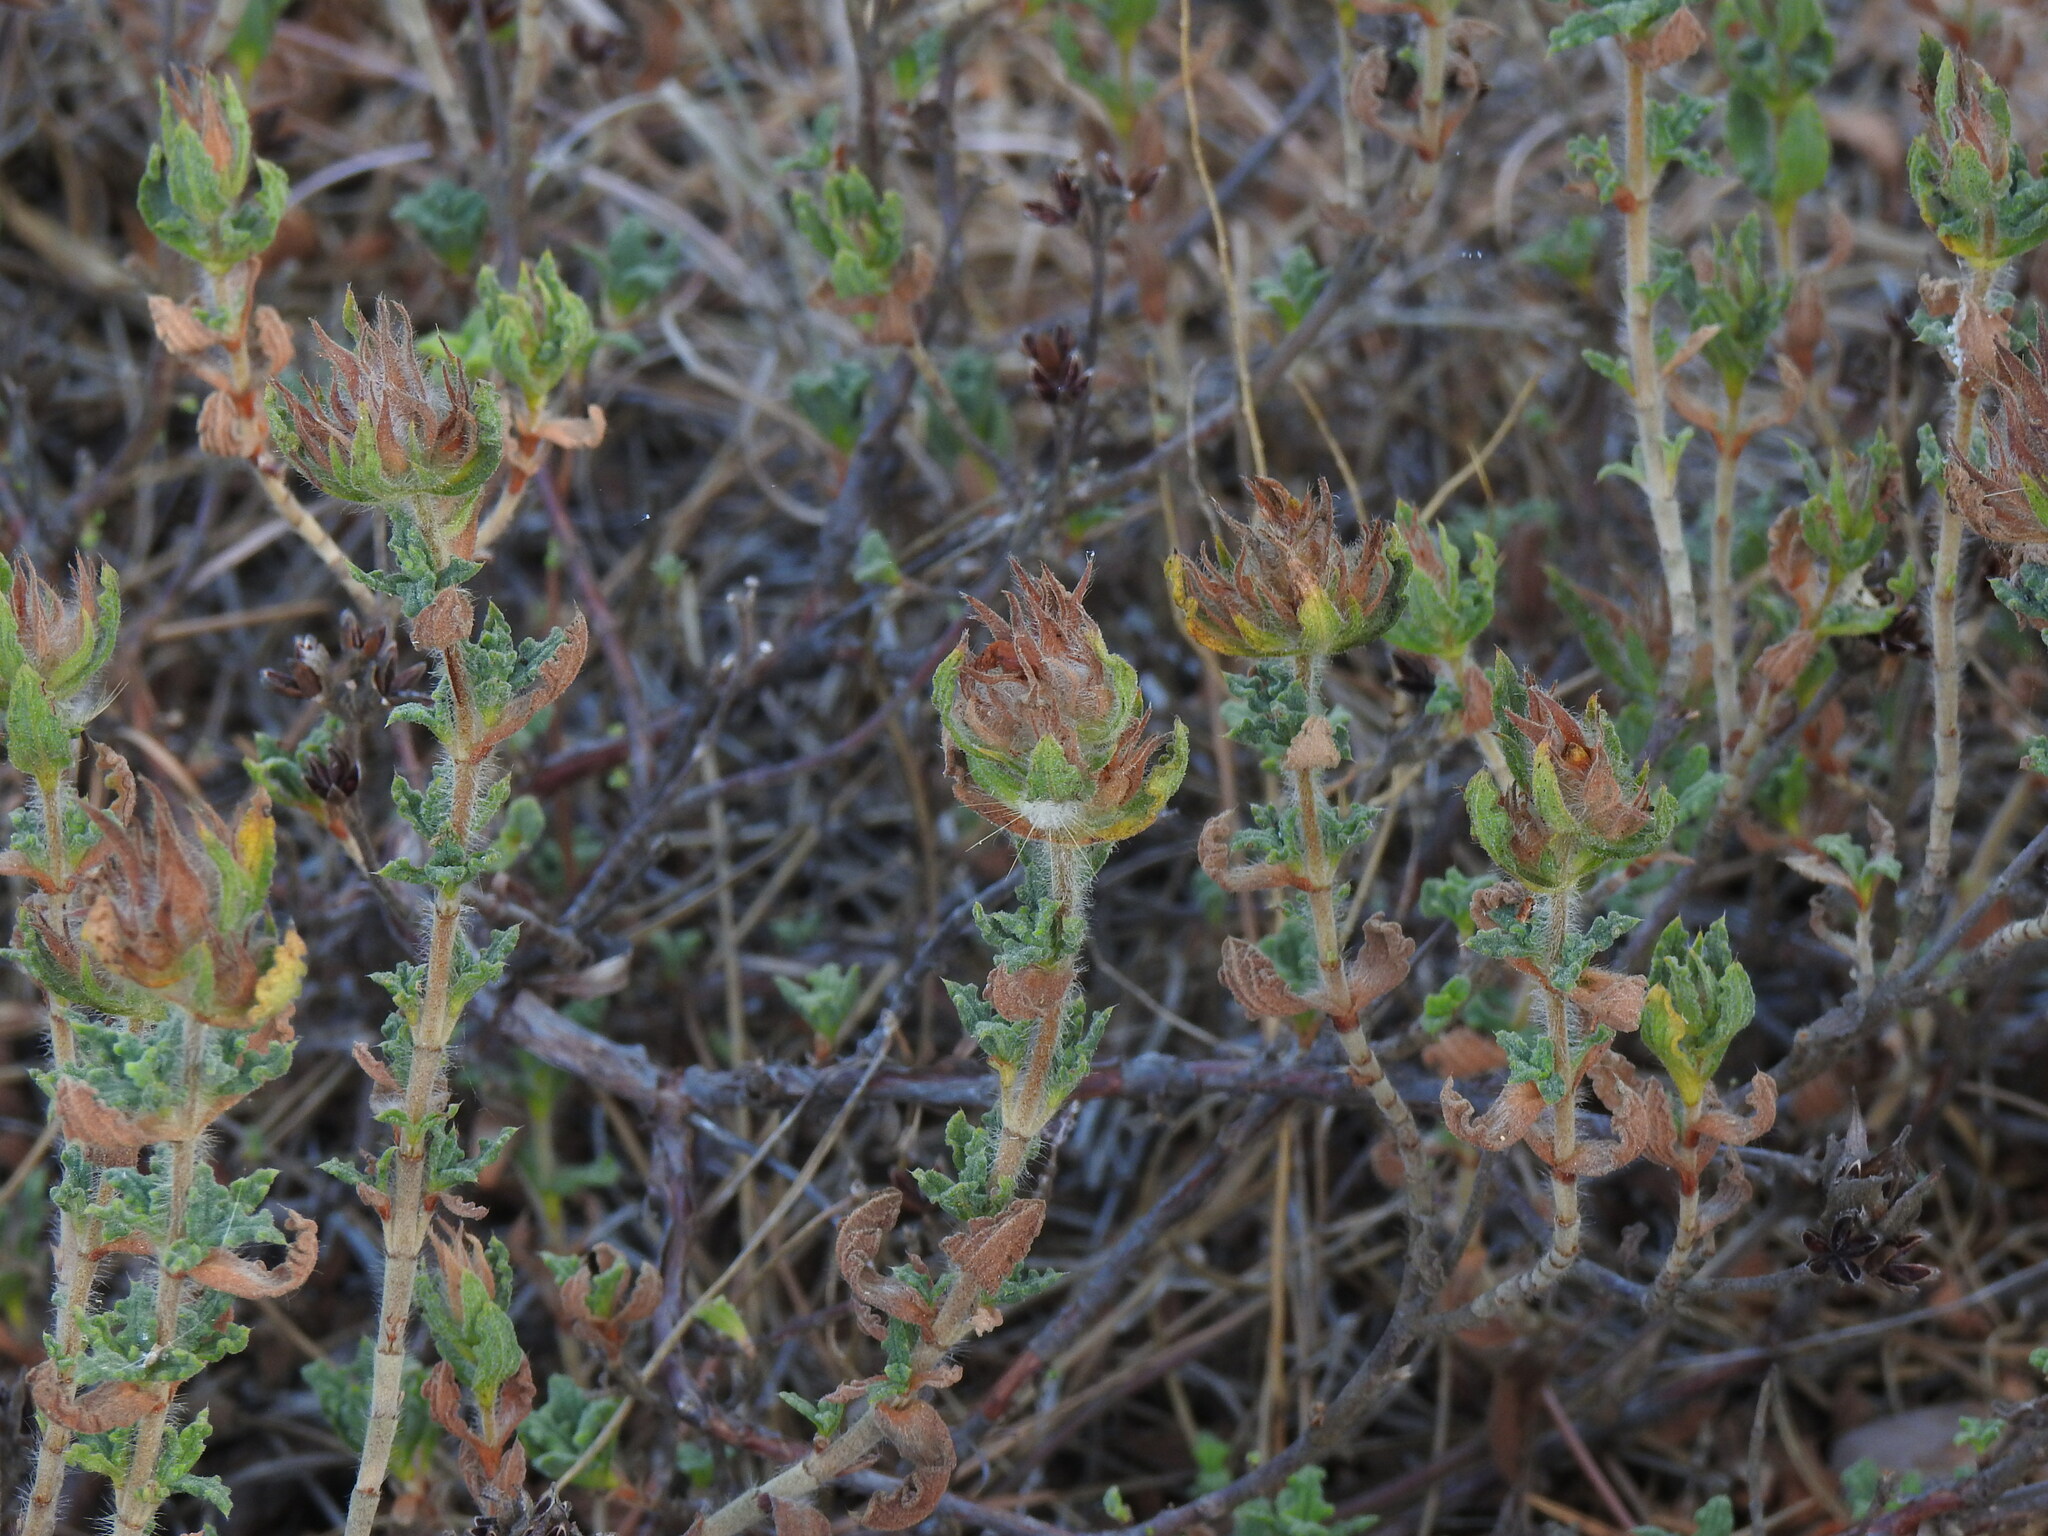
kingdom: Plantae
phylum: Tracheophyta
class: Magnoliopsida
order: Malvales
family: Cistaceae
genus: Cistus
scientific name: Cistus crispus
